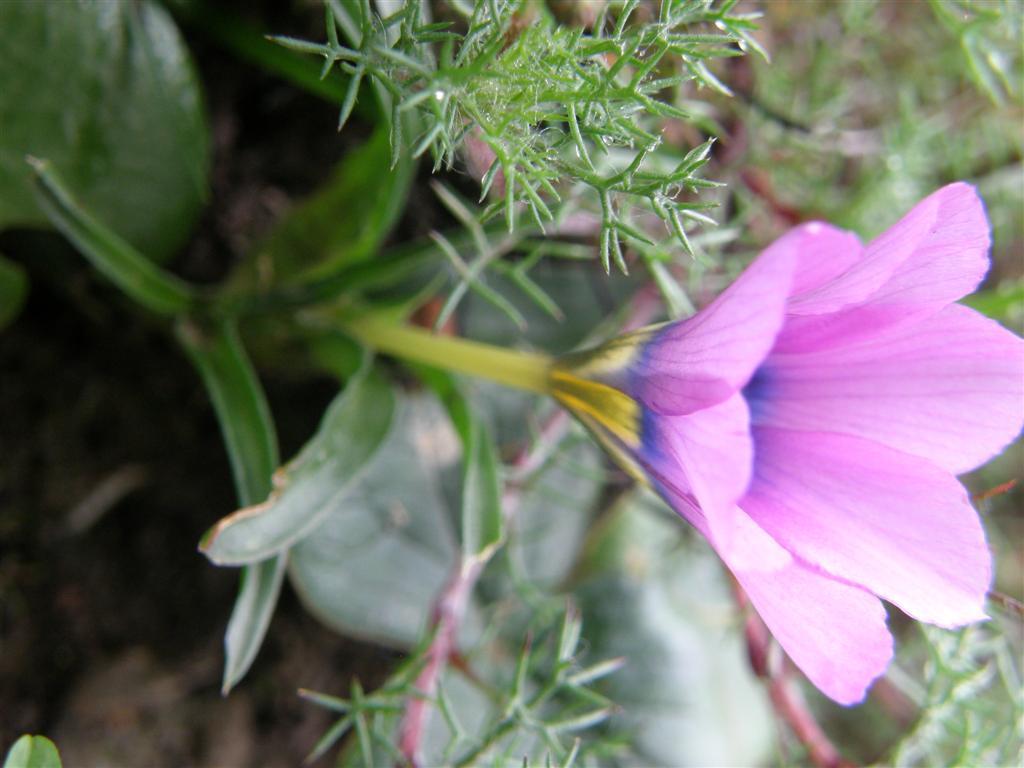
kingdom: Plantae
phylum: Tracheophyta
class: Liliopsida
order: Asparagales
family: Iridaceae
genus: Moraea
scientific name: Moraea barnardiella
